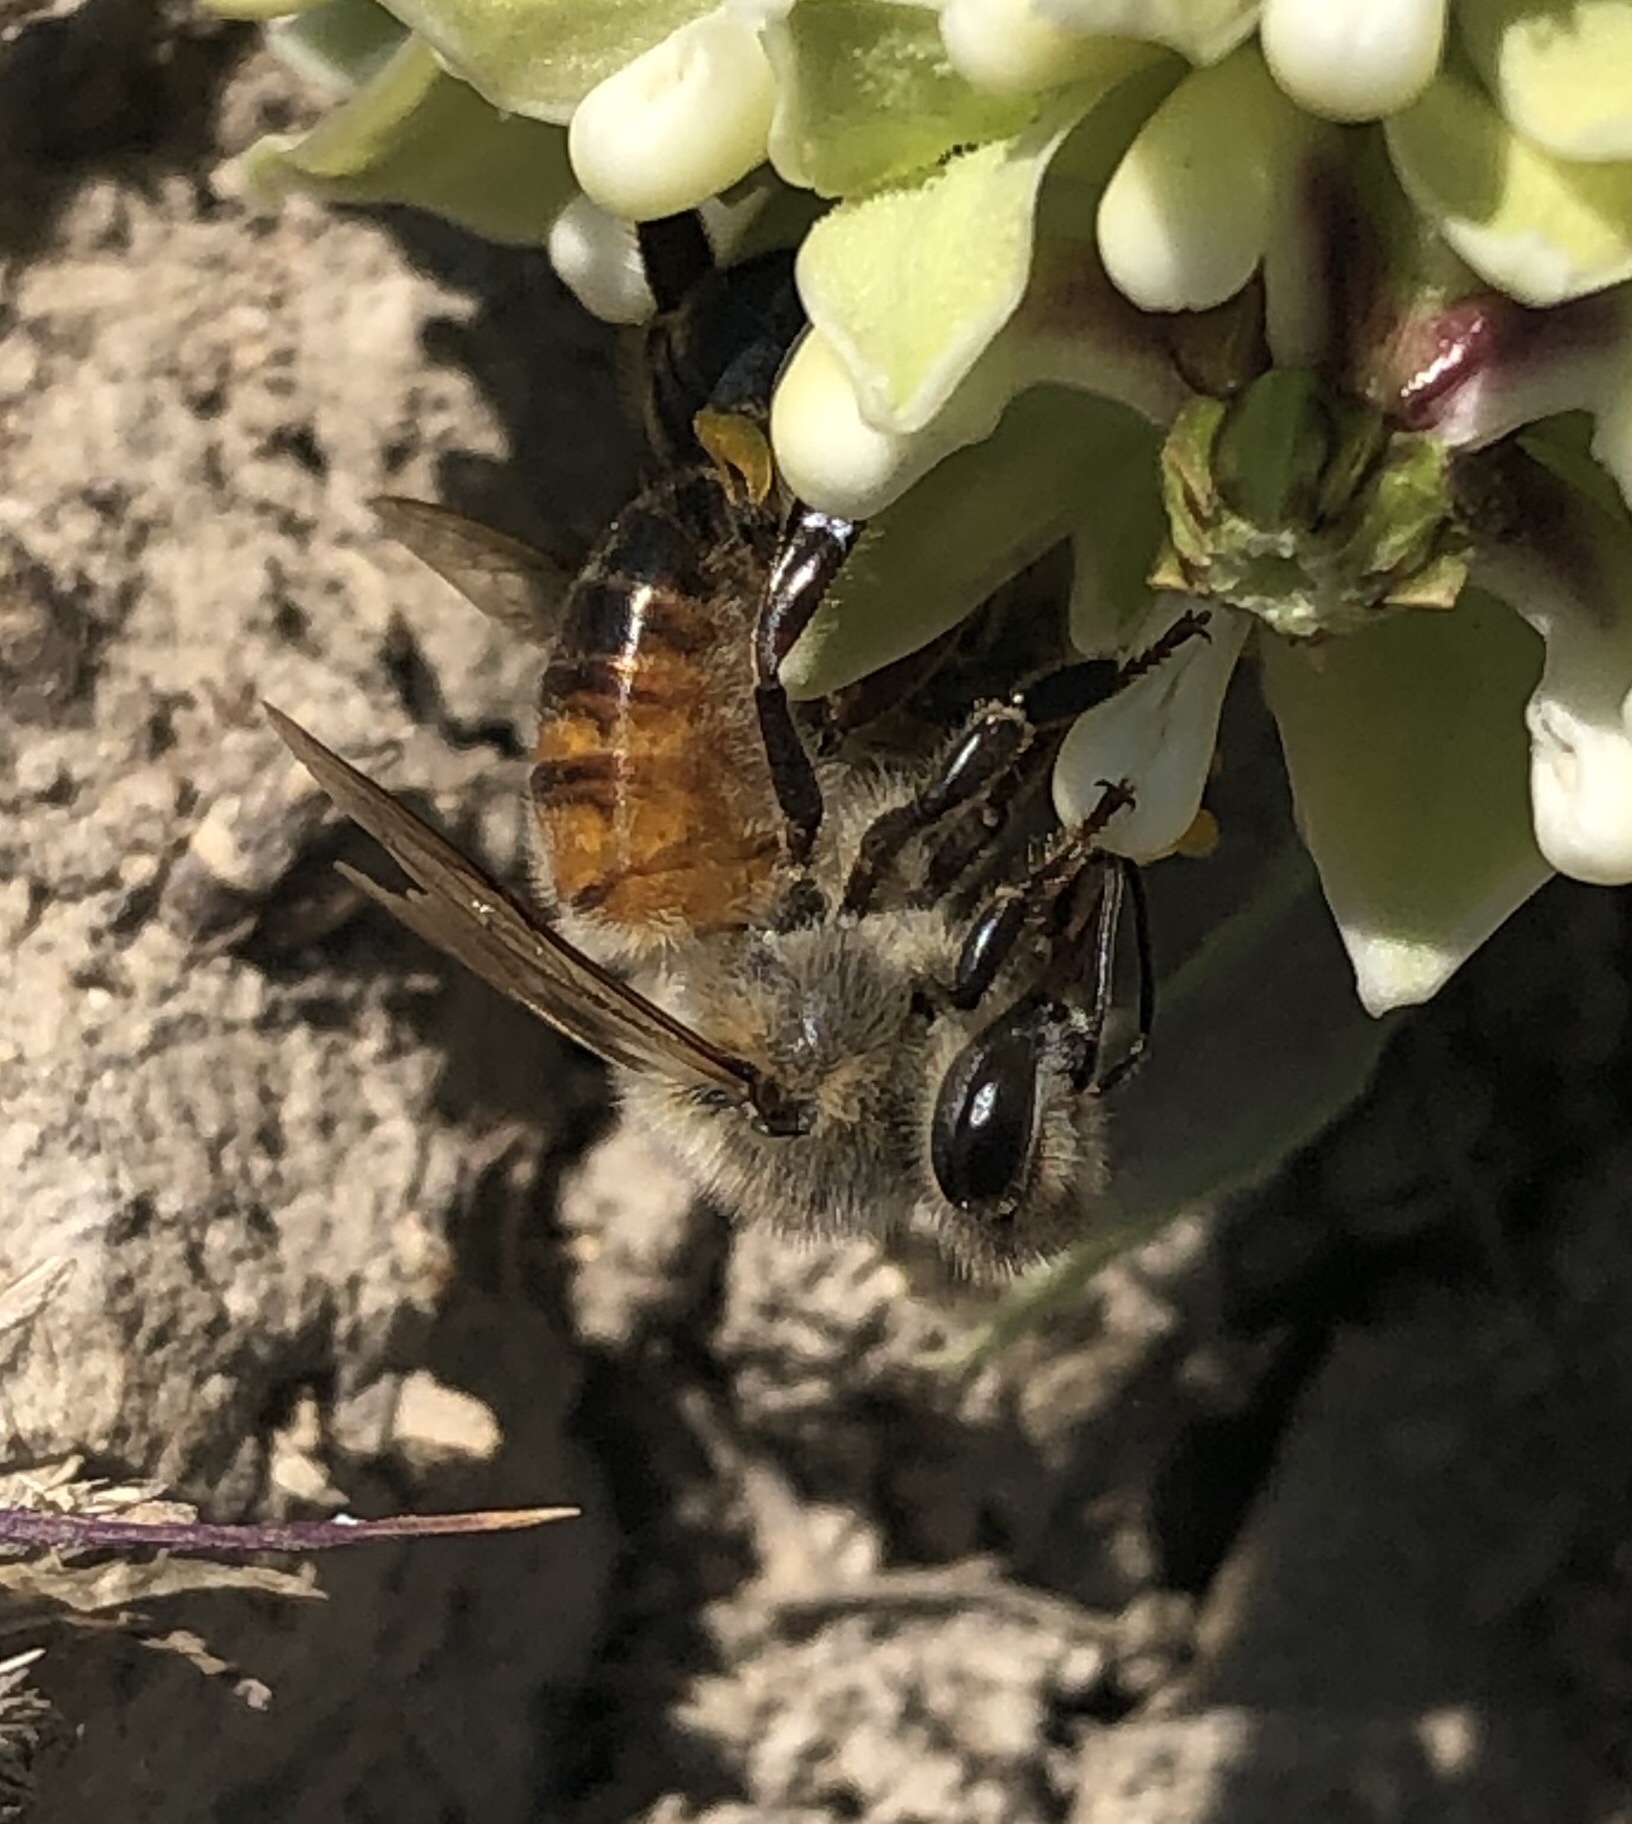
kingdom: Animalia
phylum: Arthropoda
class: Insecta
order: Hymenoptera
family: Apidae
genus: Apis
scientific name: Apis mellifera
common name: Honey bee
